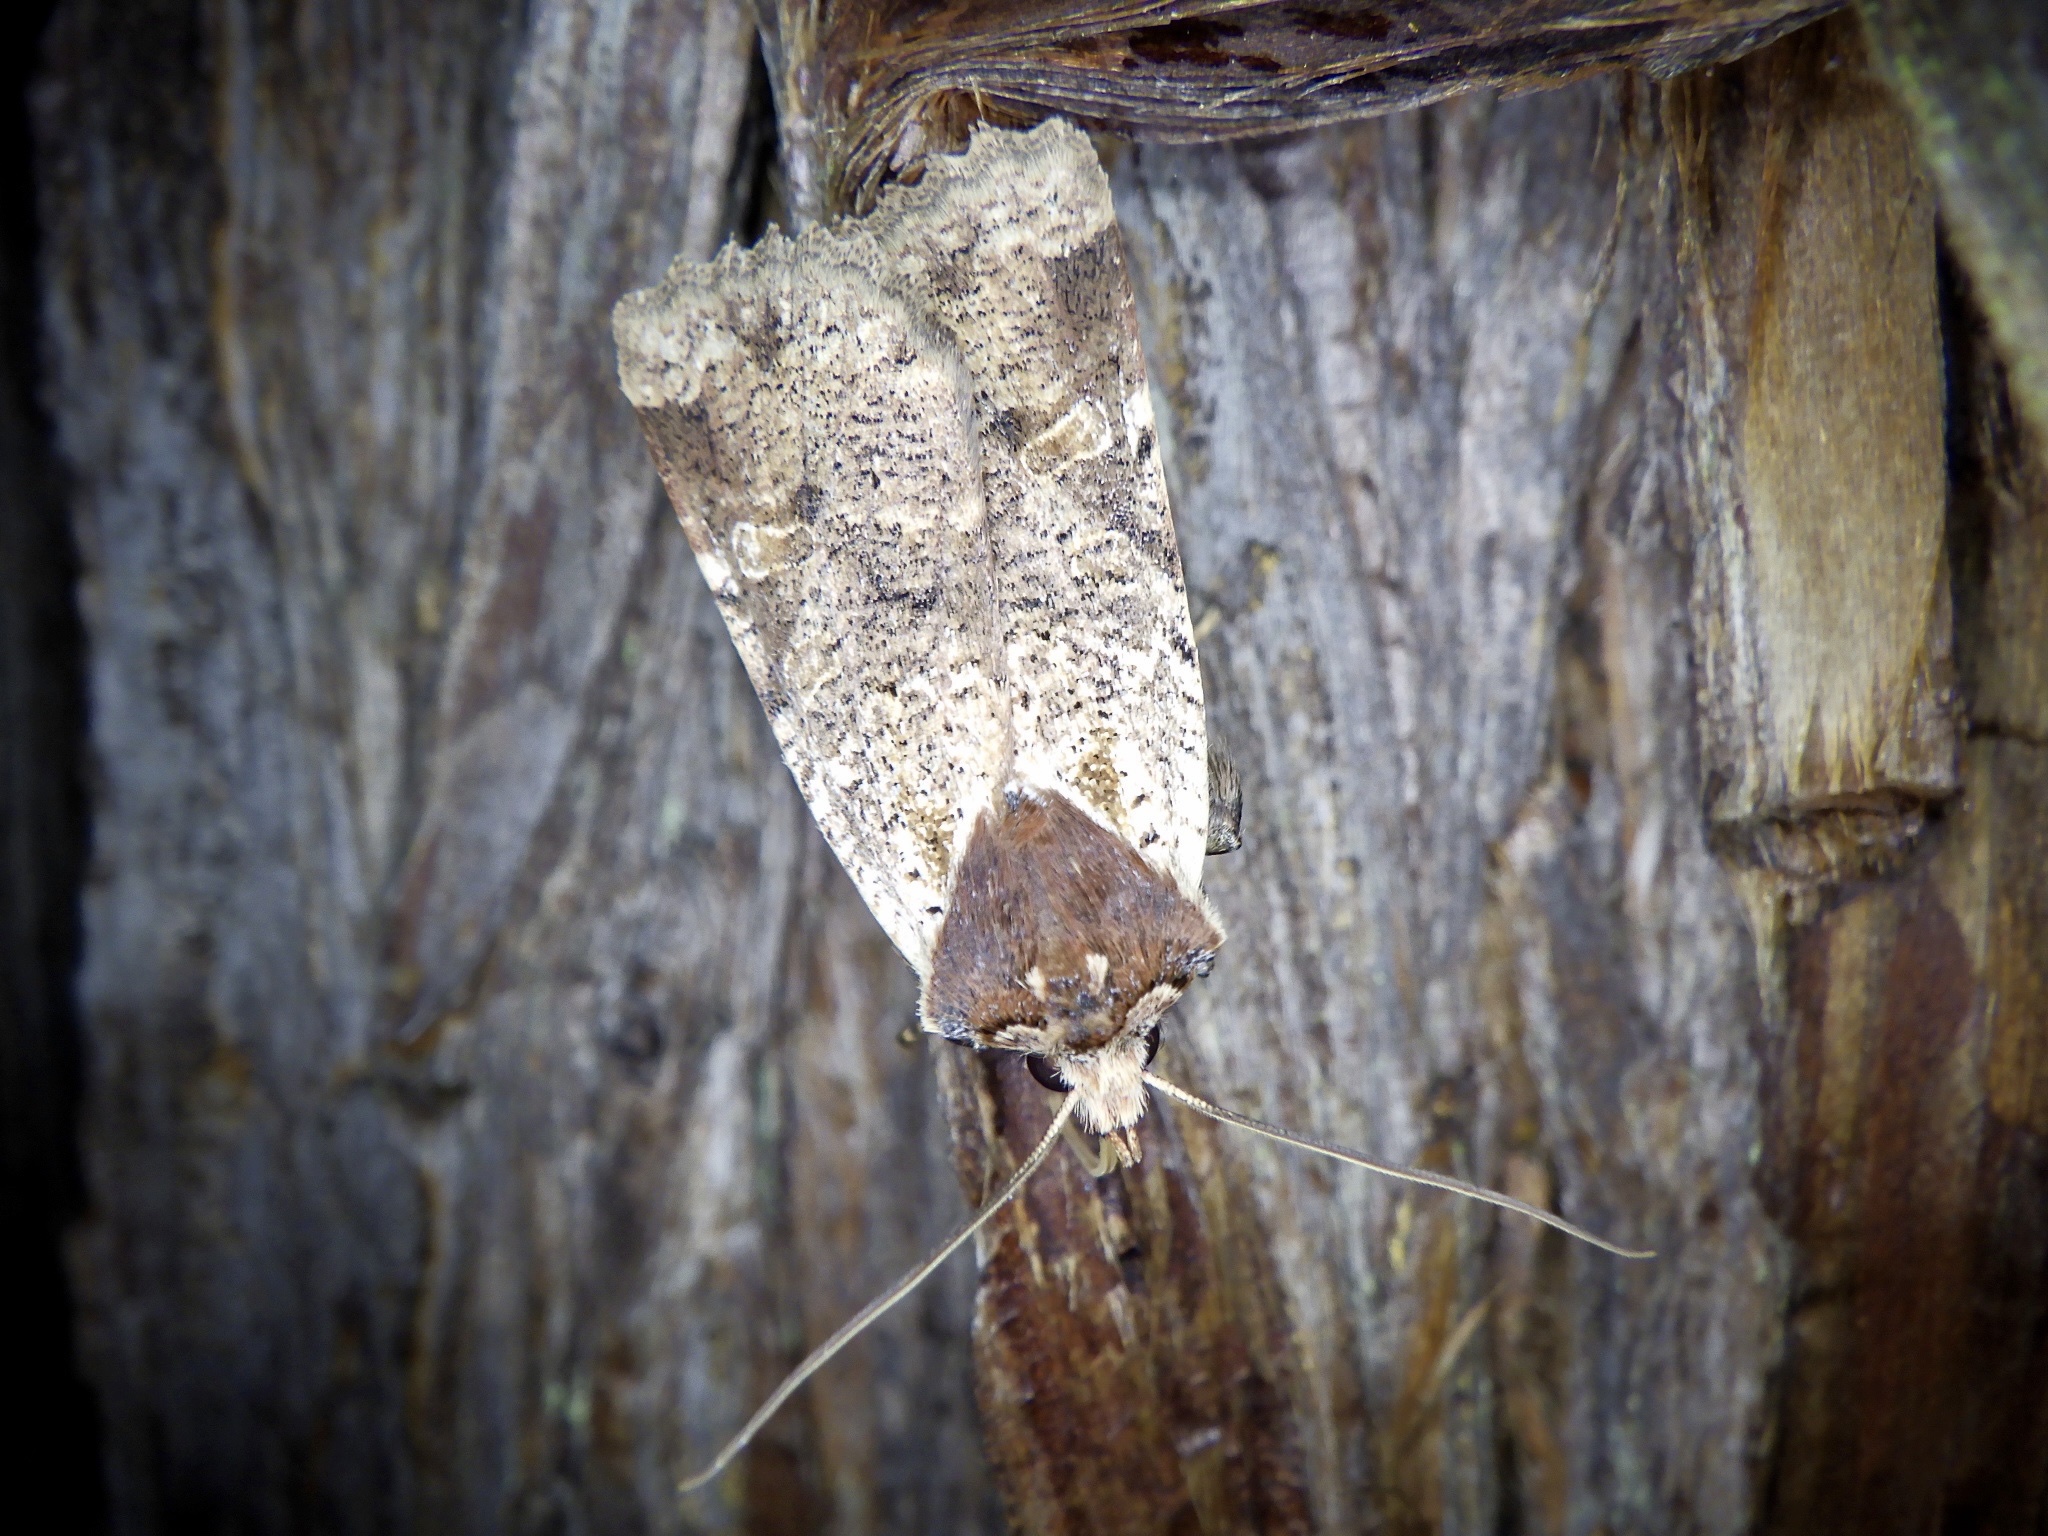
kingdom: Animalia
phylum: Arthropoda
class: Insecta
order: Lepidoptera
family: Noctuidae
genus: Rhynchaglaea
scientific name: Rhynchaglaea scitula
